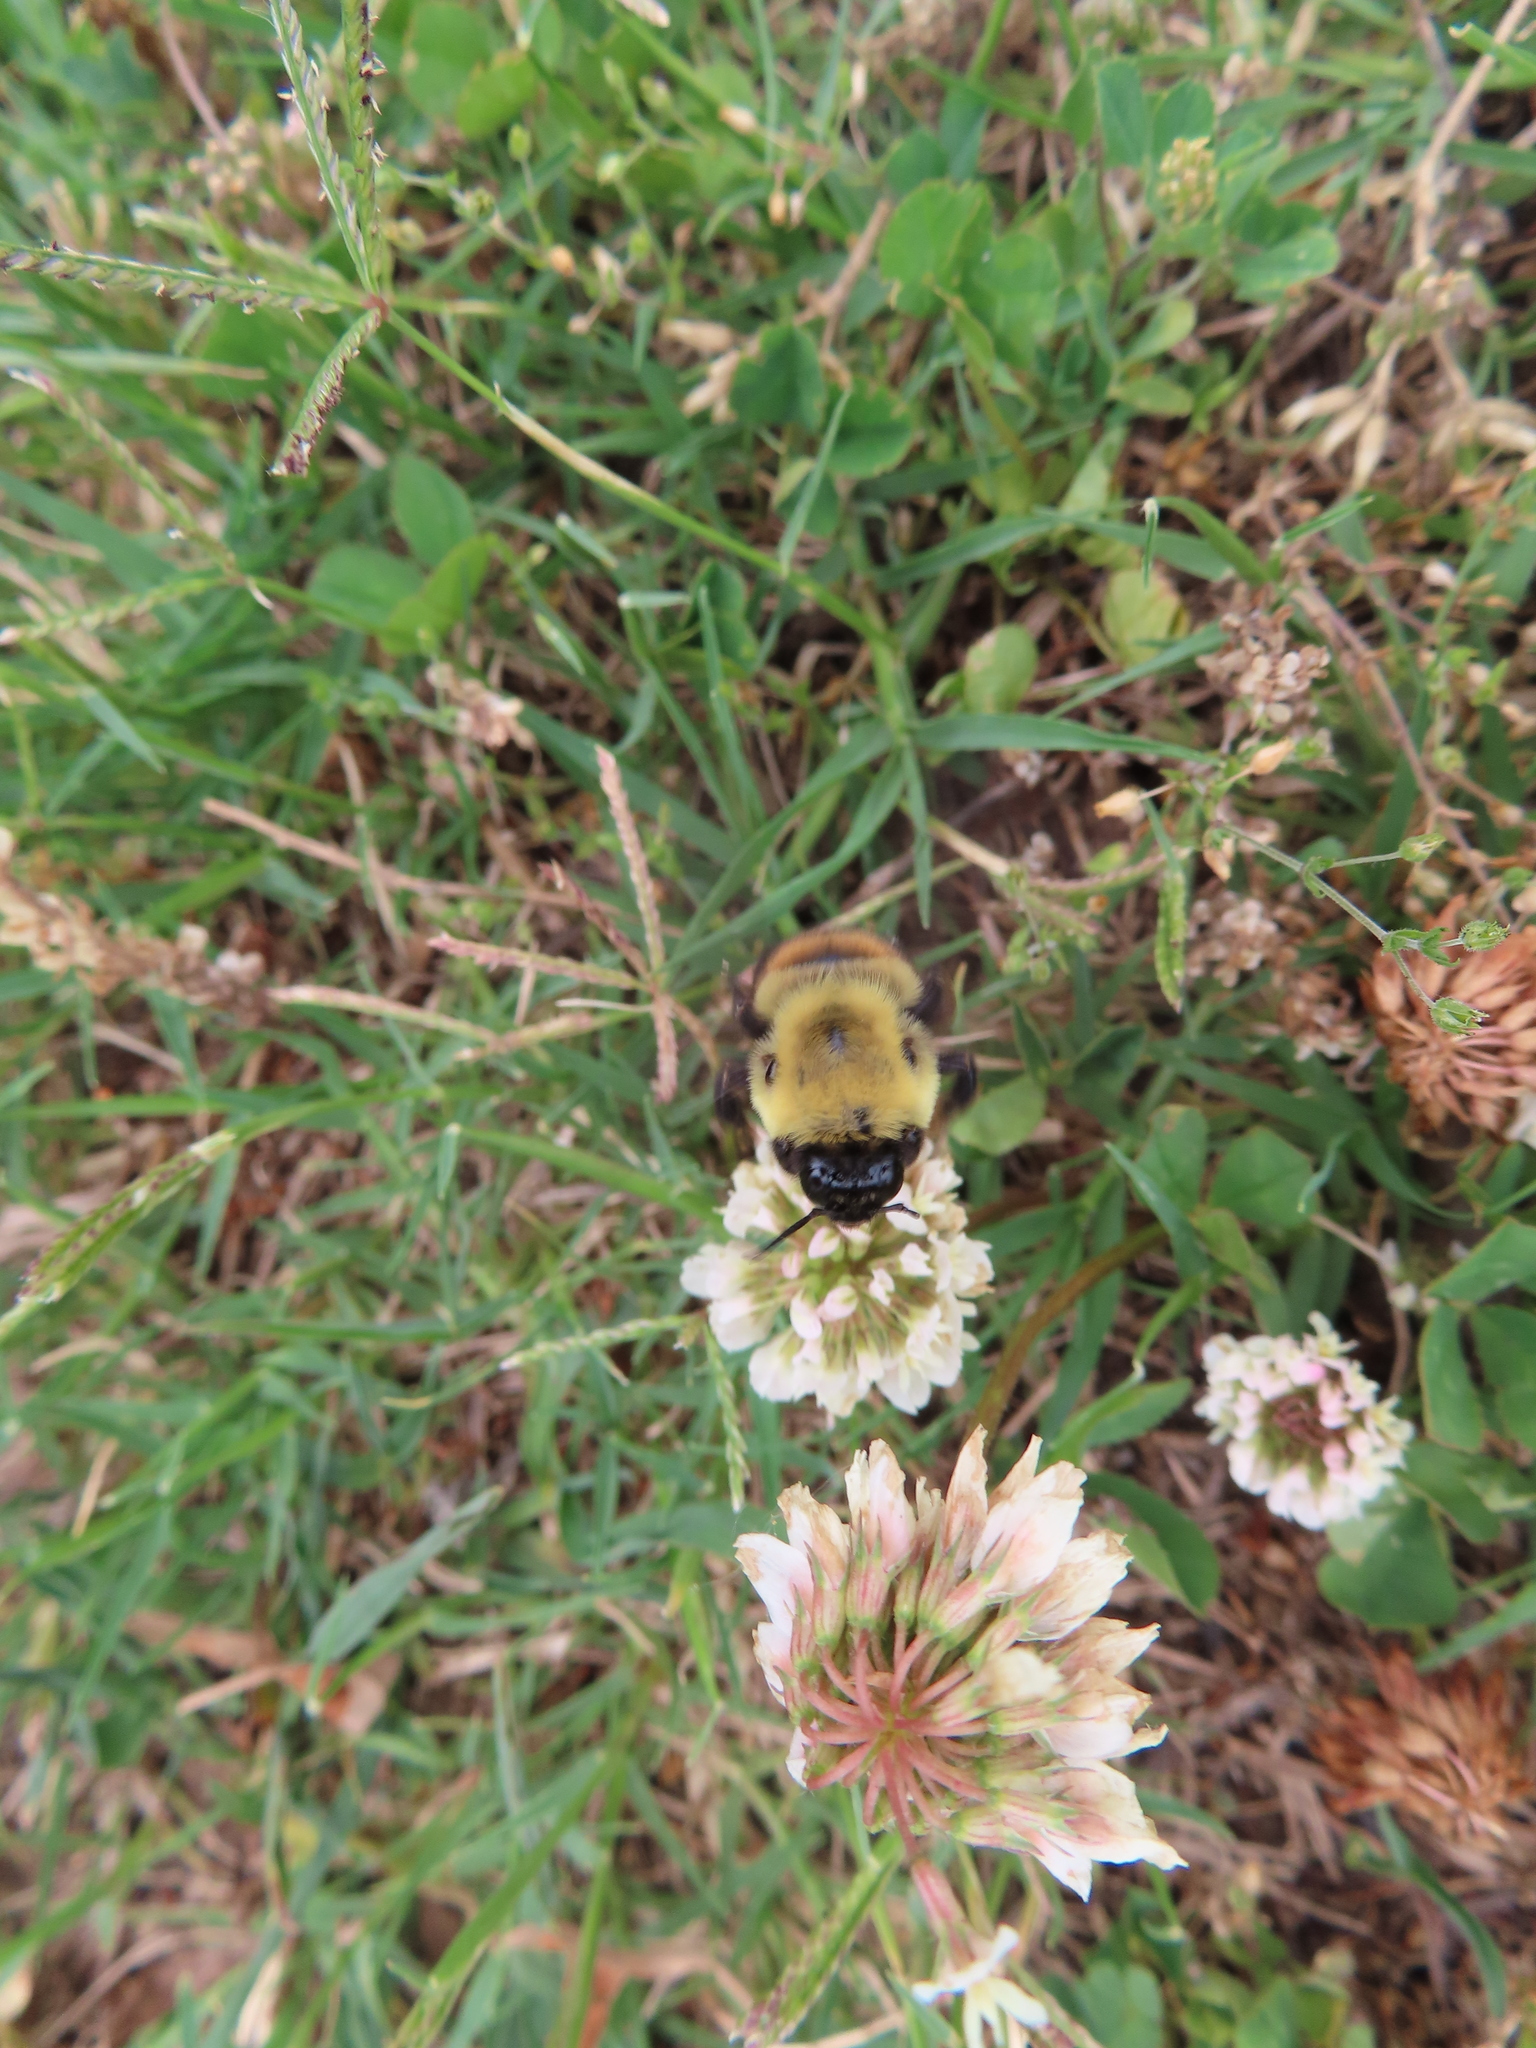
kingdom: Animalia
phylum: Arthropoda
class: Insecta
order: Hymenoptera
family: Apidae
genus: Bombus
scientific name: Bombus griseocollis
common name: Brown-belted bumble bee
